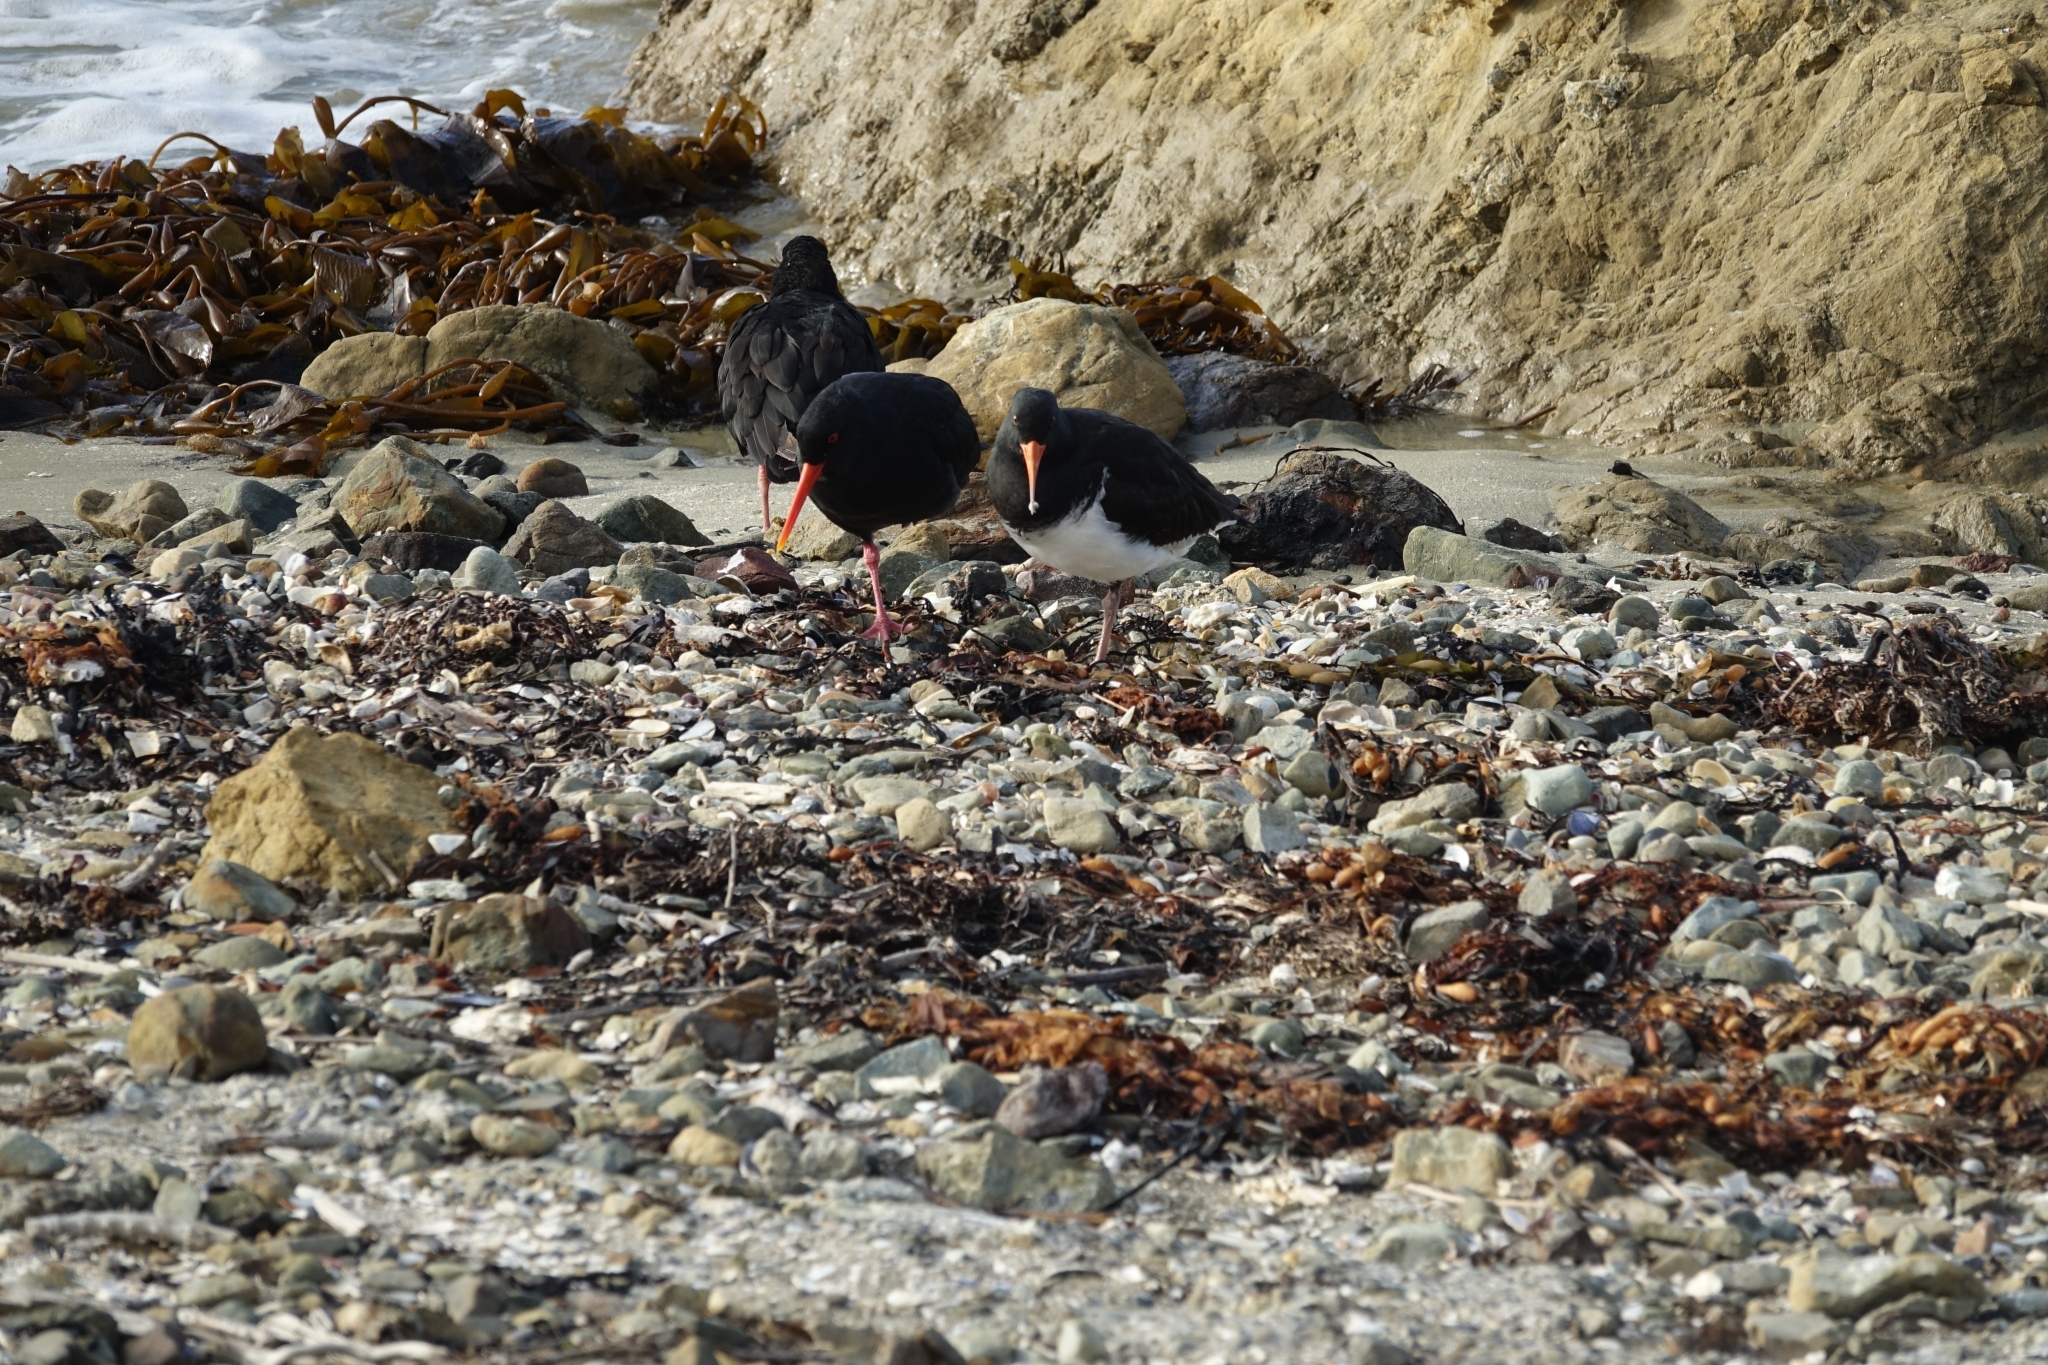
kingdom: Animalia
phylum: Chordata
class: Aves
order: Charadriiformes
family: Haematopodidae
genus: Haematopus
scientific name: Haematopus unicolor
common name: Variable oystercatcher
